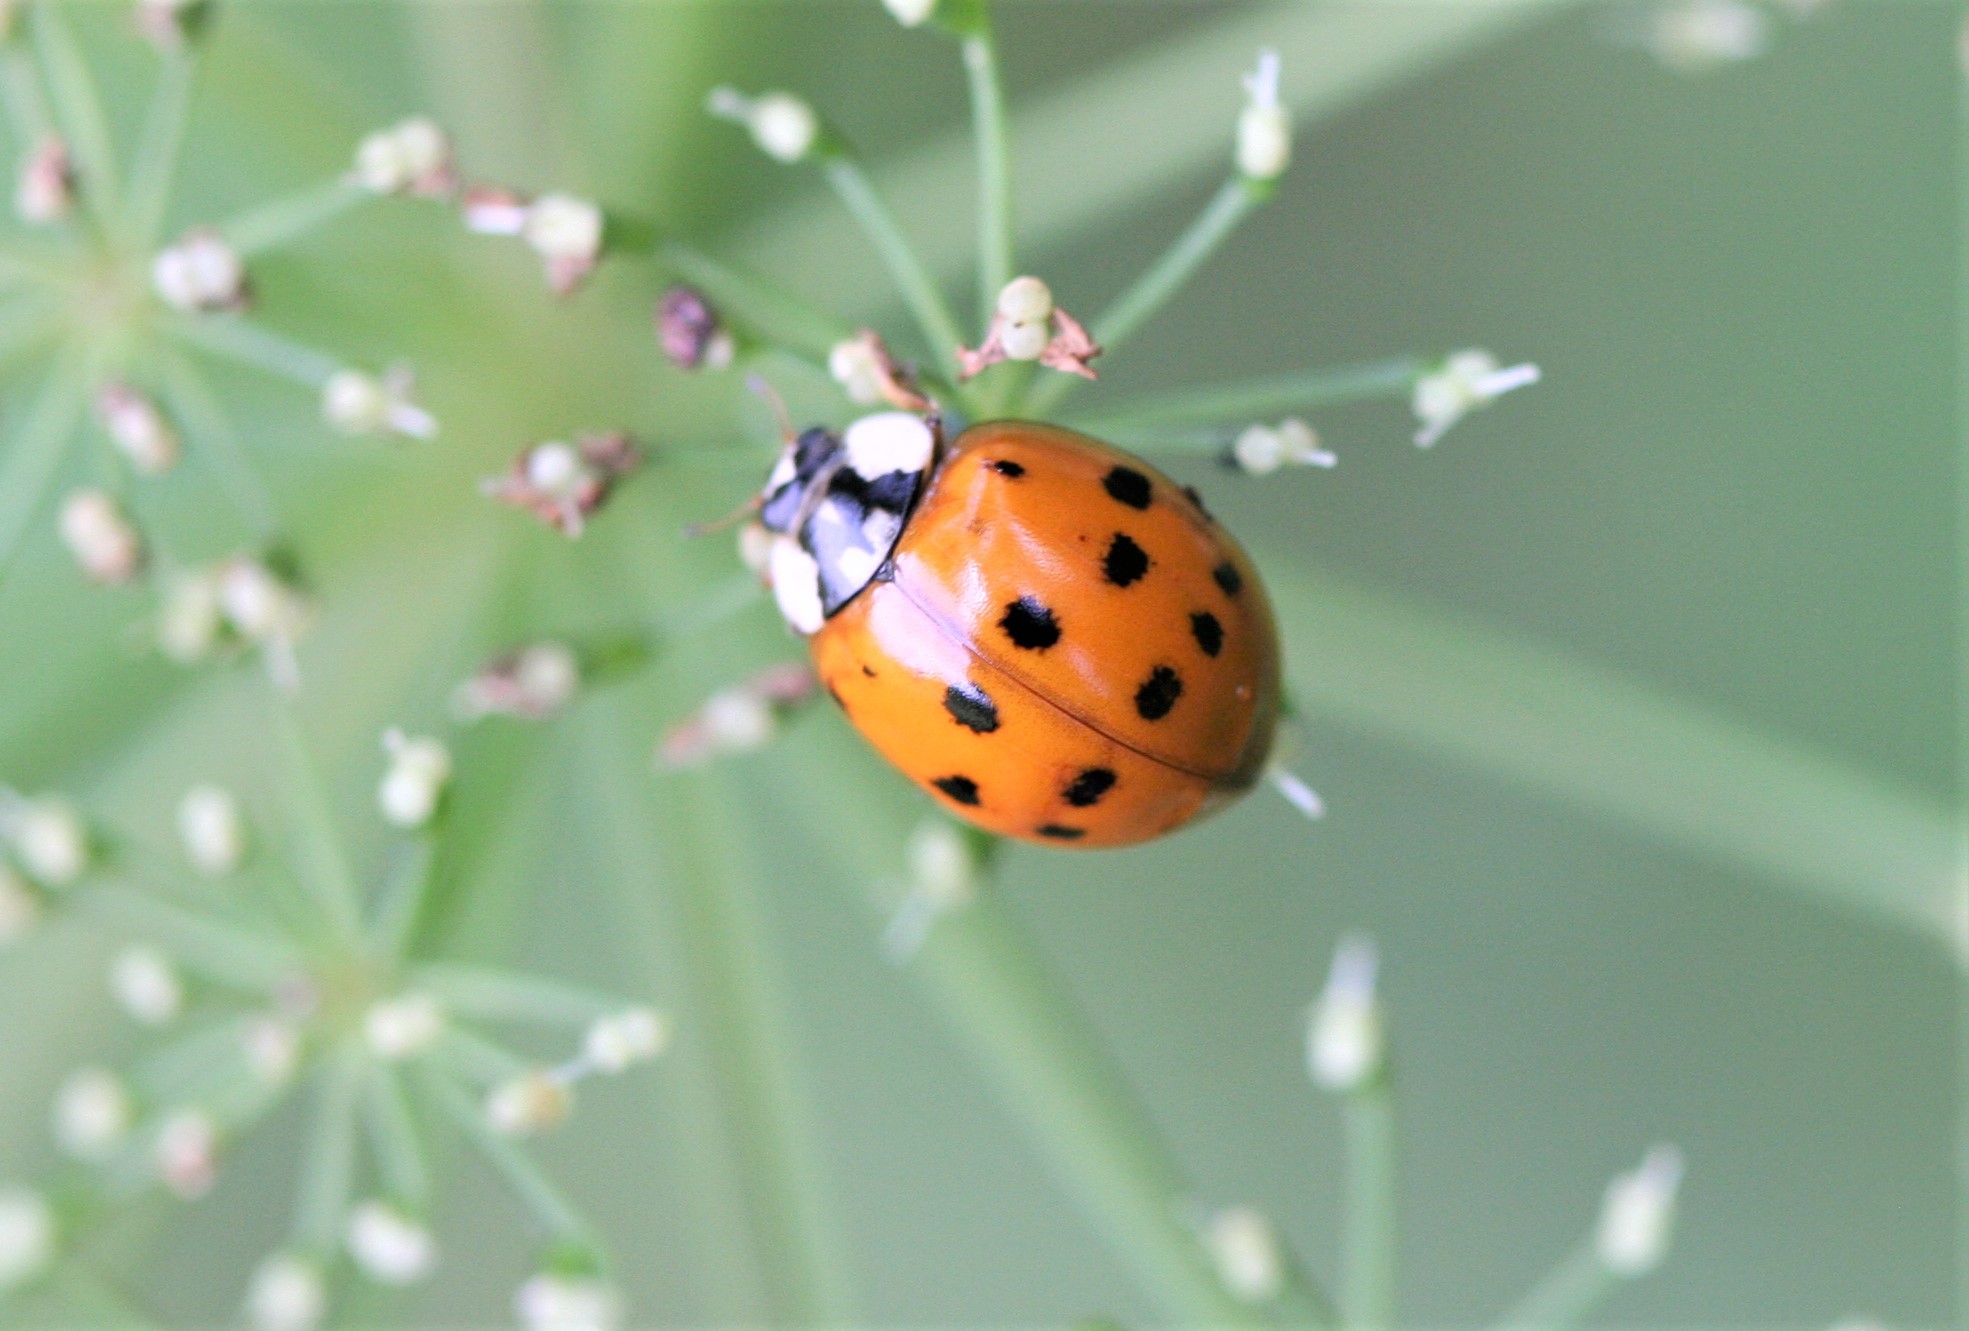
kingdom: Animalia
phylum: Arthropoda
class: Insecta
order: Coleoptera
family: Coccinellidae
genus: Harmonia
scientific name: Harmonia axyridis
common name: Harlequin ladybird
